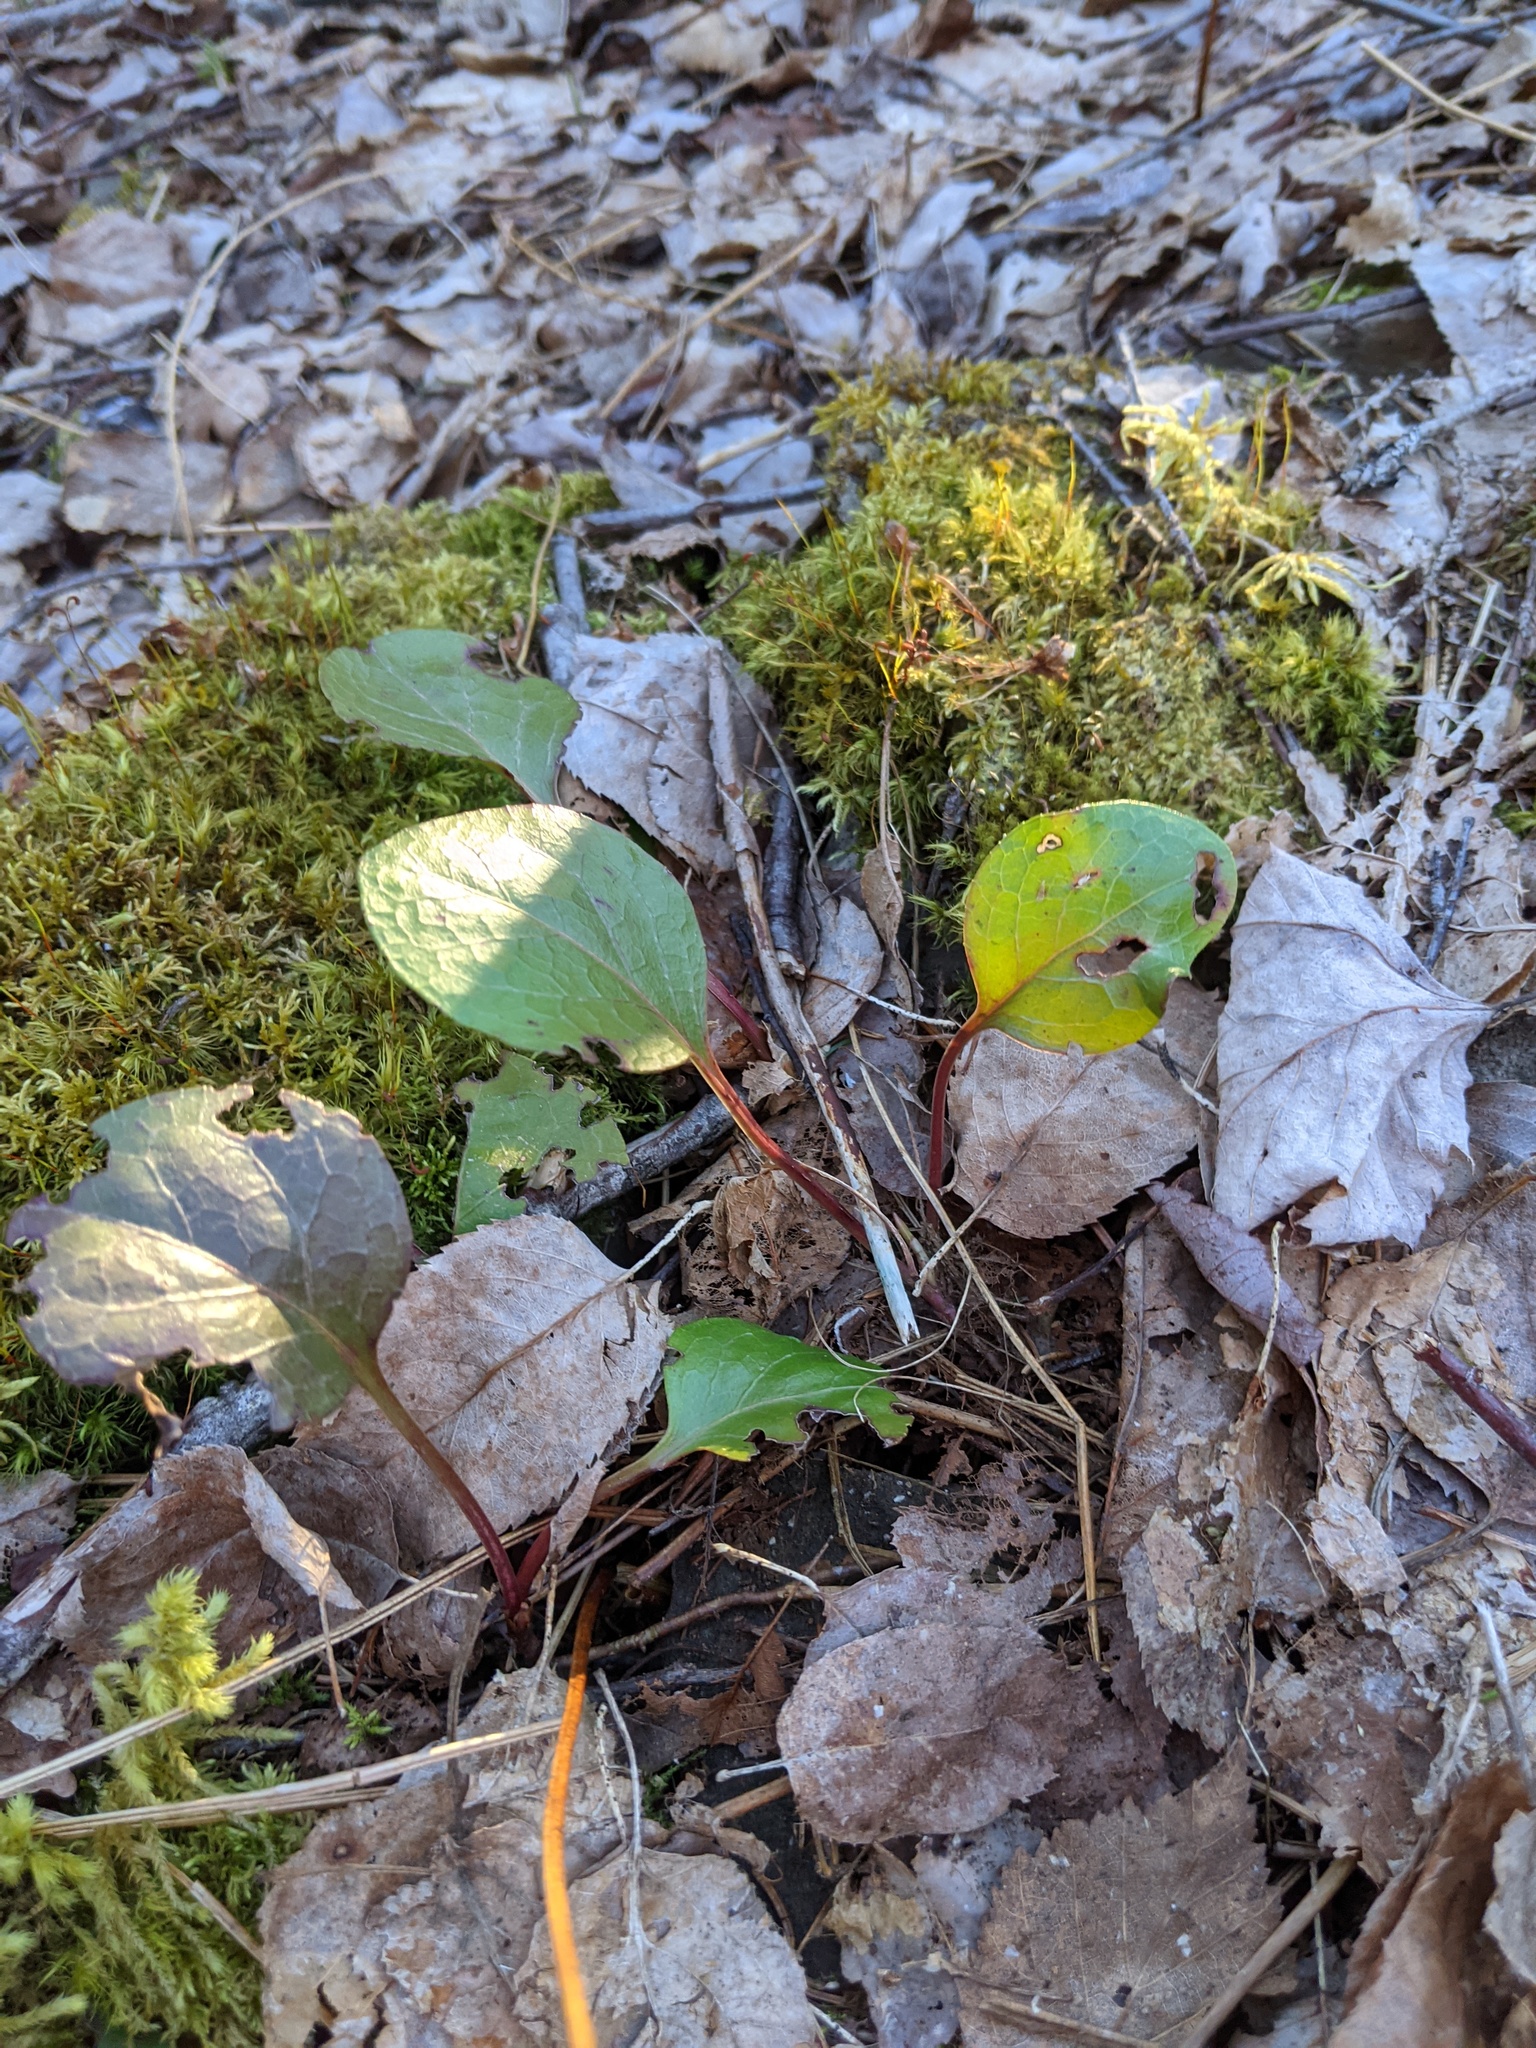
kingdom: Plantae
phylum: Tracheophyta
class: Magnoliopsida
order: Ericales
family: Ericaceae
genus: Pyrola
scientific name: Pyrola americana
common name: American wintergreen
